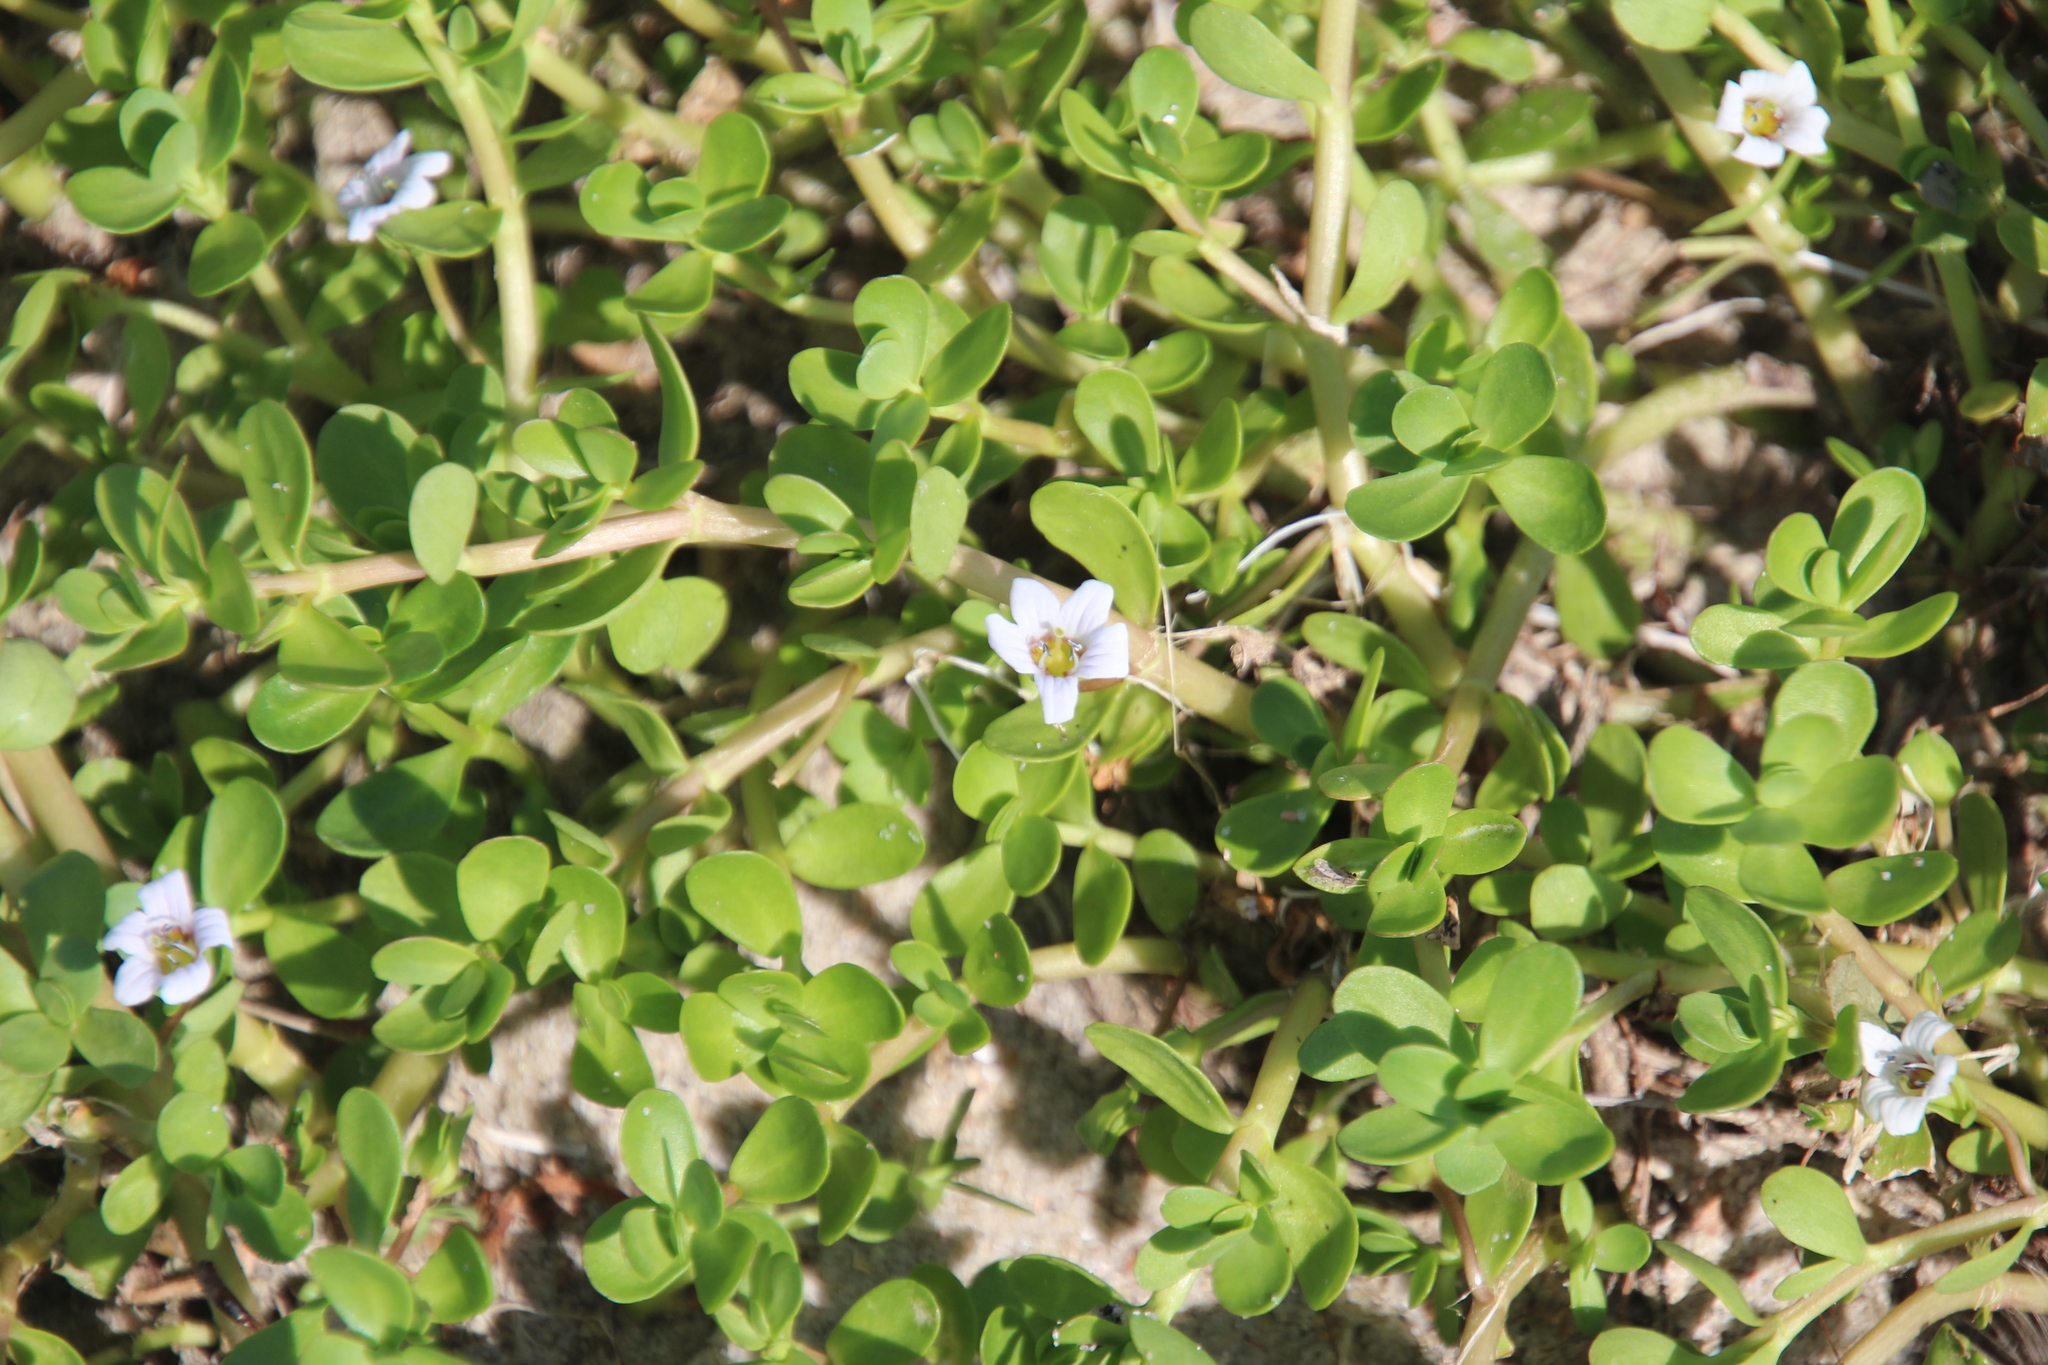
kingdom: Plantae
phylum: Tracheophyta
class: Magnoliopsida
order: Lamiales
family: Plantaginaceae
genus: Bacopa
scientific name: Bacopa monnieri
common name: Indian-pennywort
